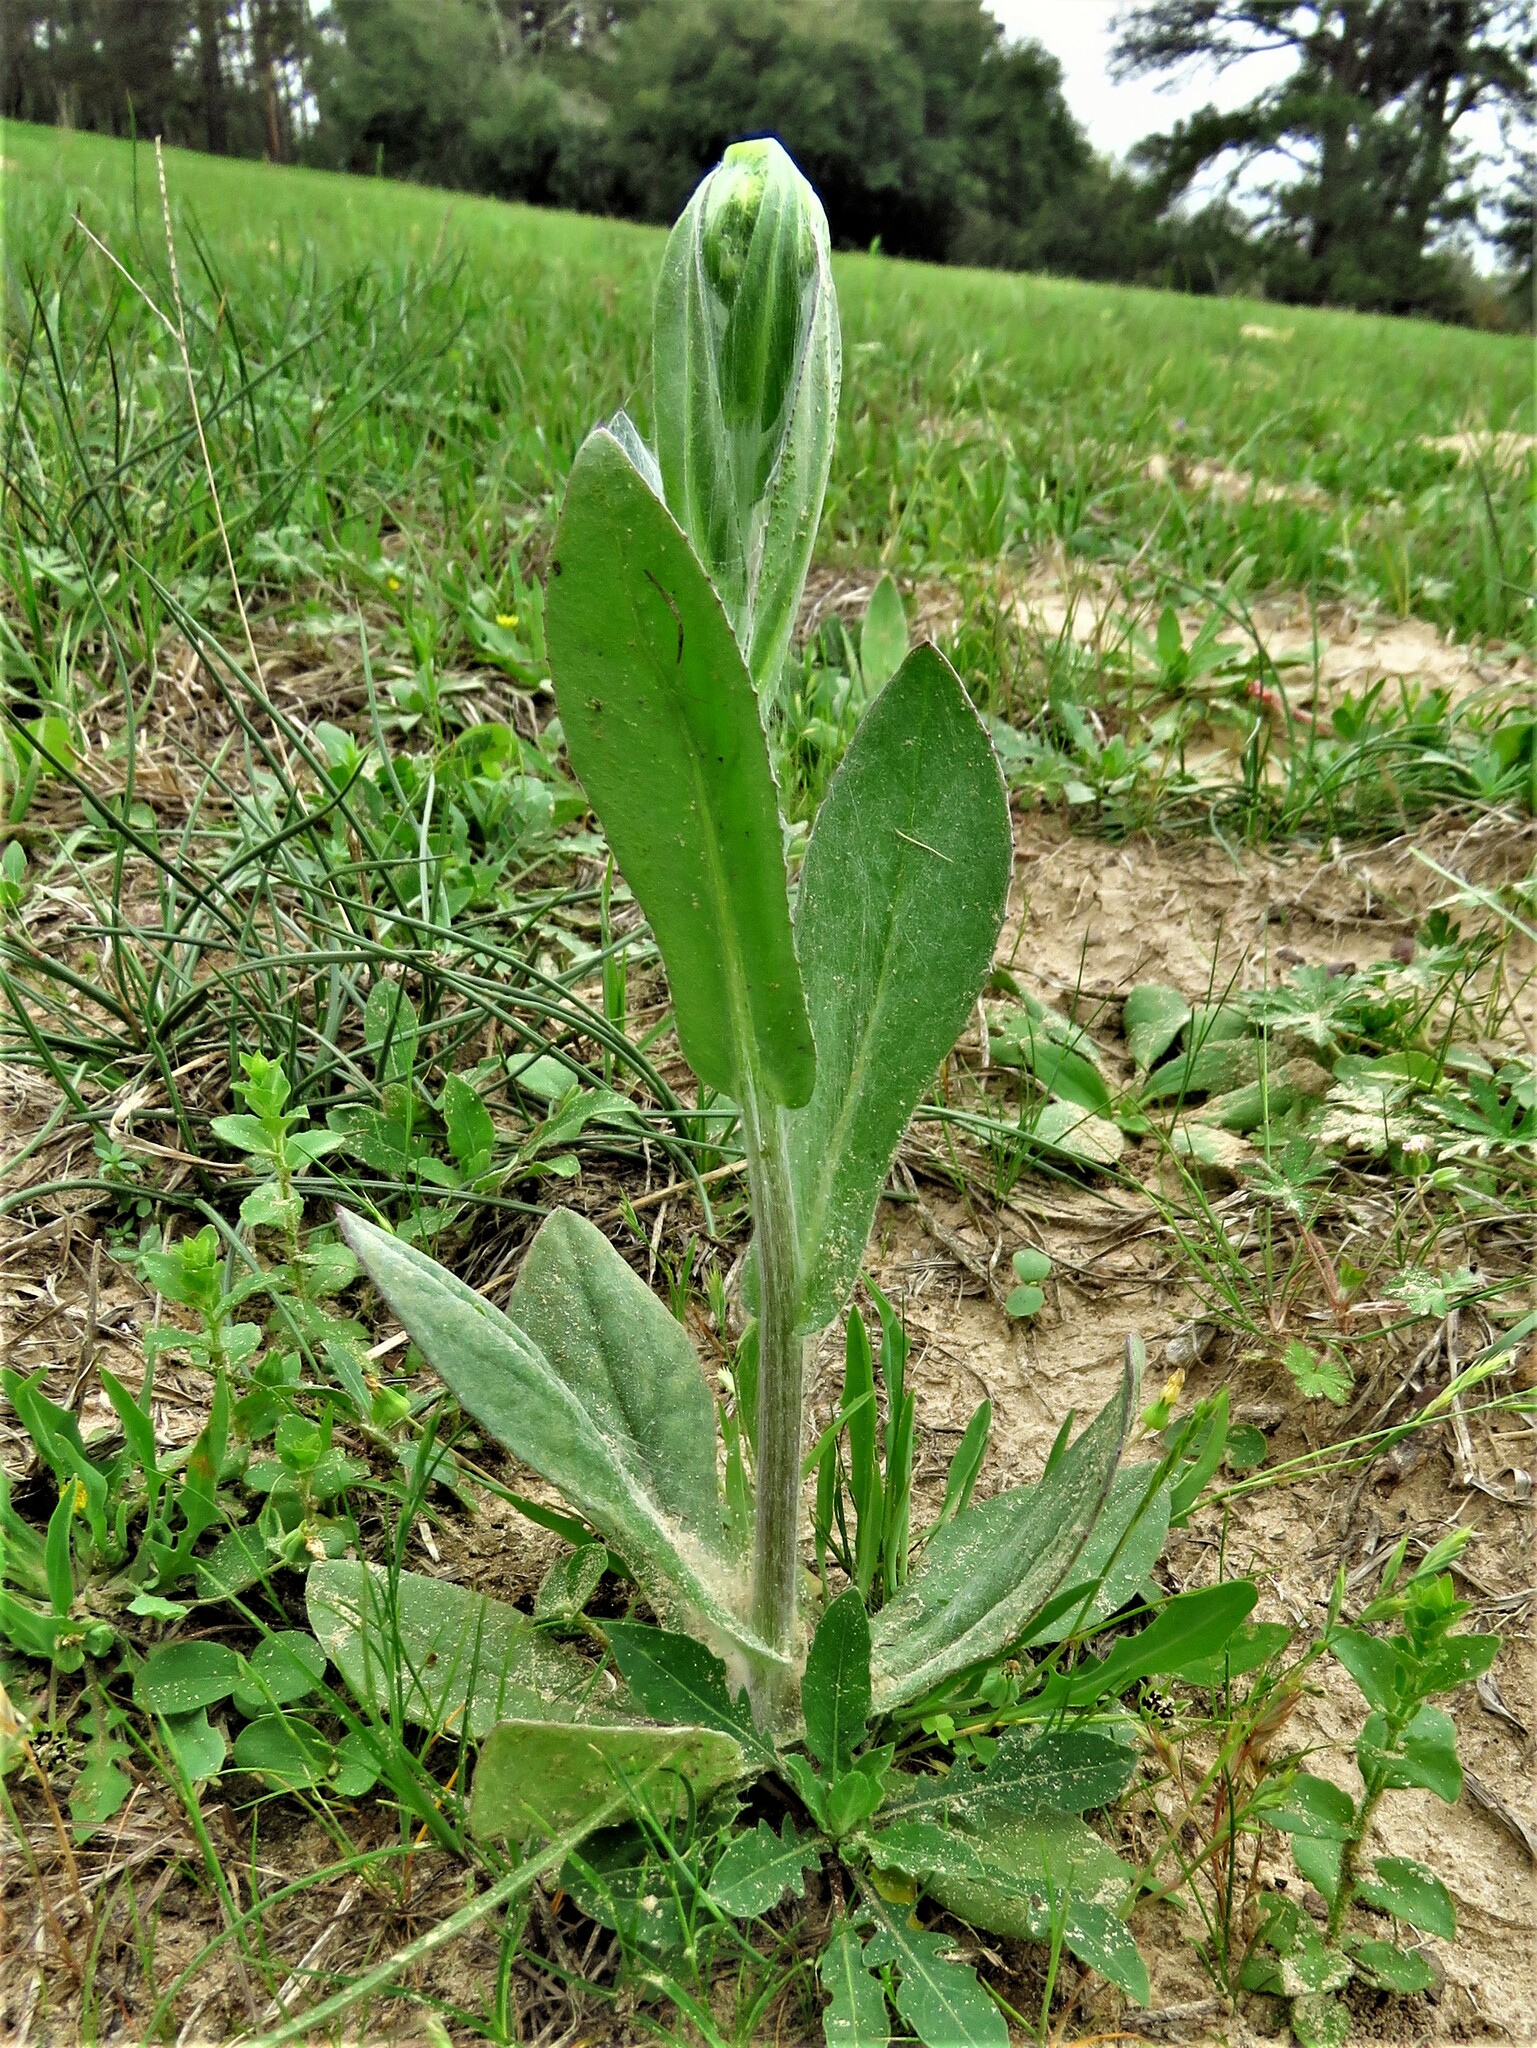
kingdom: Plantae
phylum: Tracheophyta
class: Magnoliopsida
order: Asterales
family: Asteraceae
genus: Senecio
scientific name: Senecio ampullaceus
